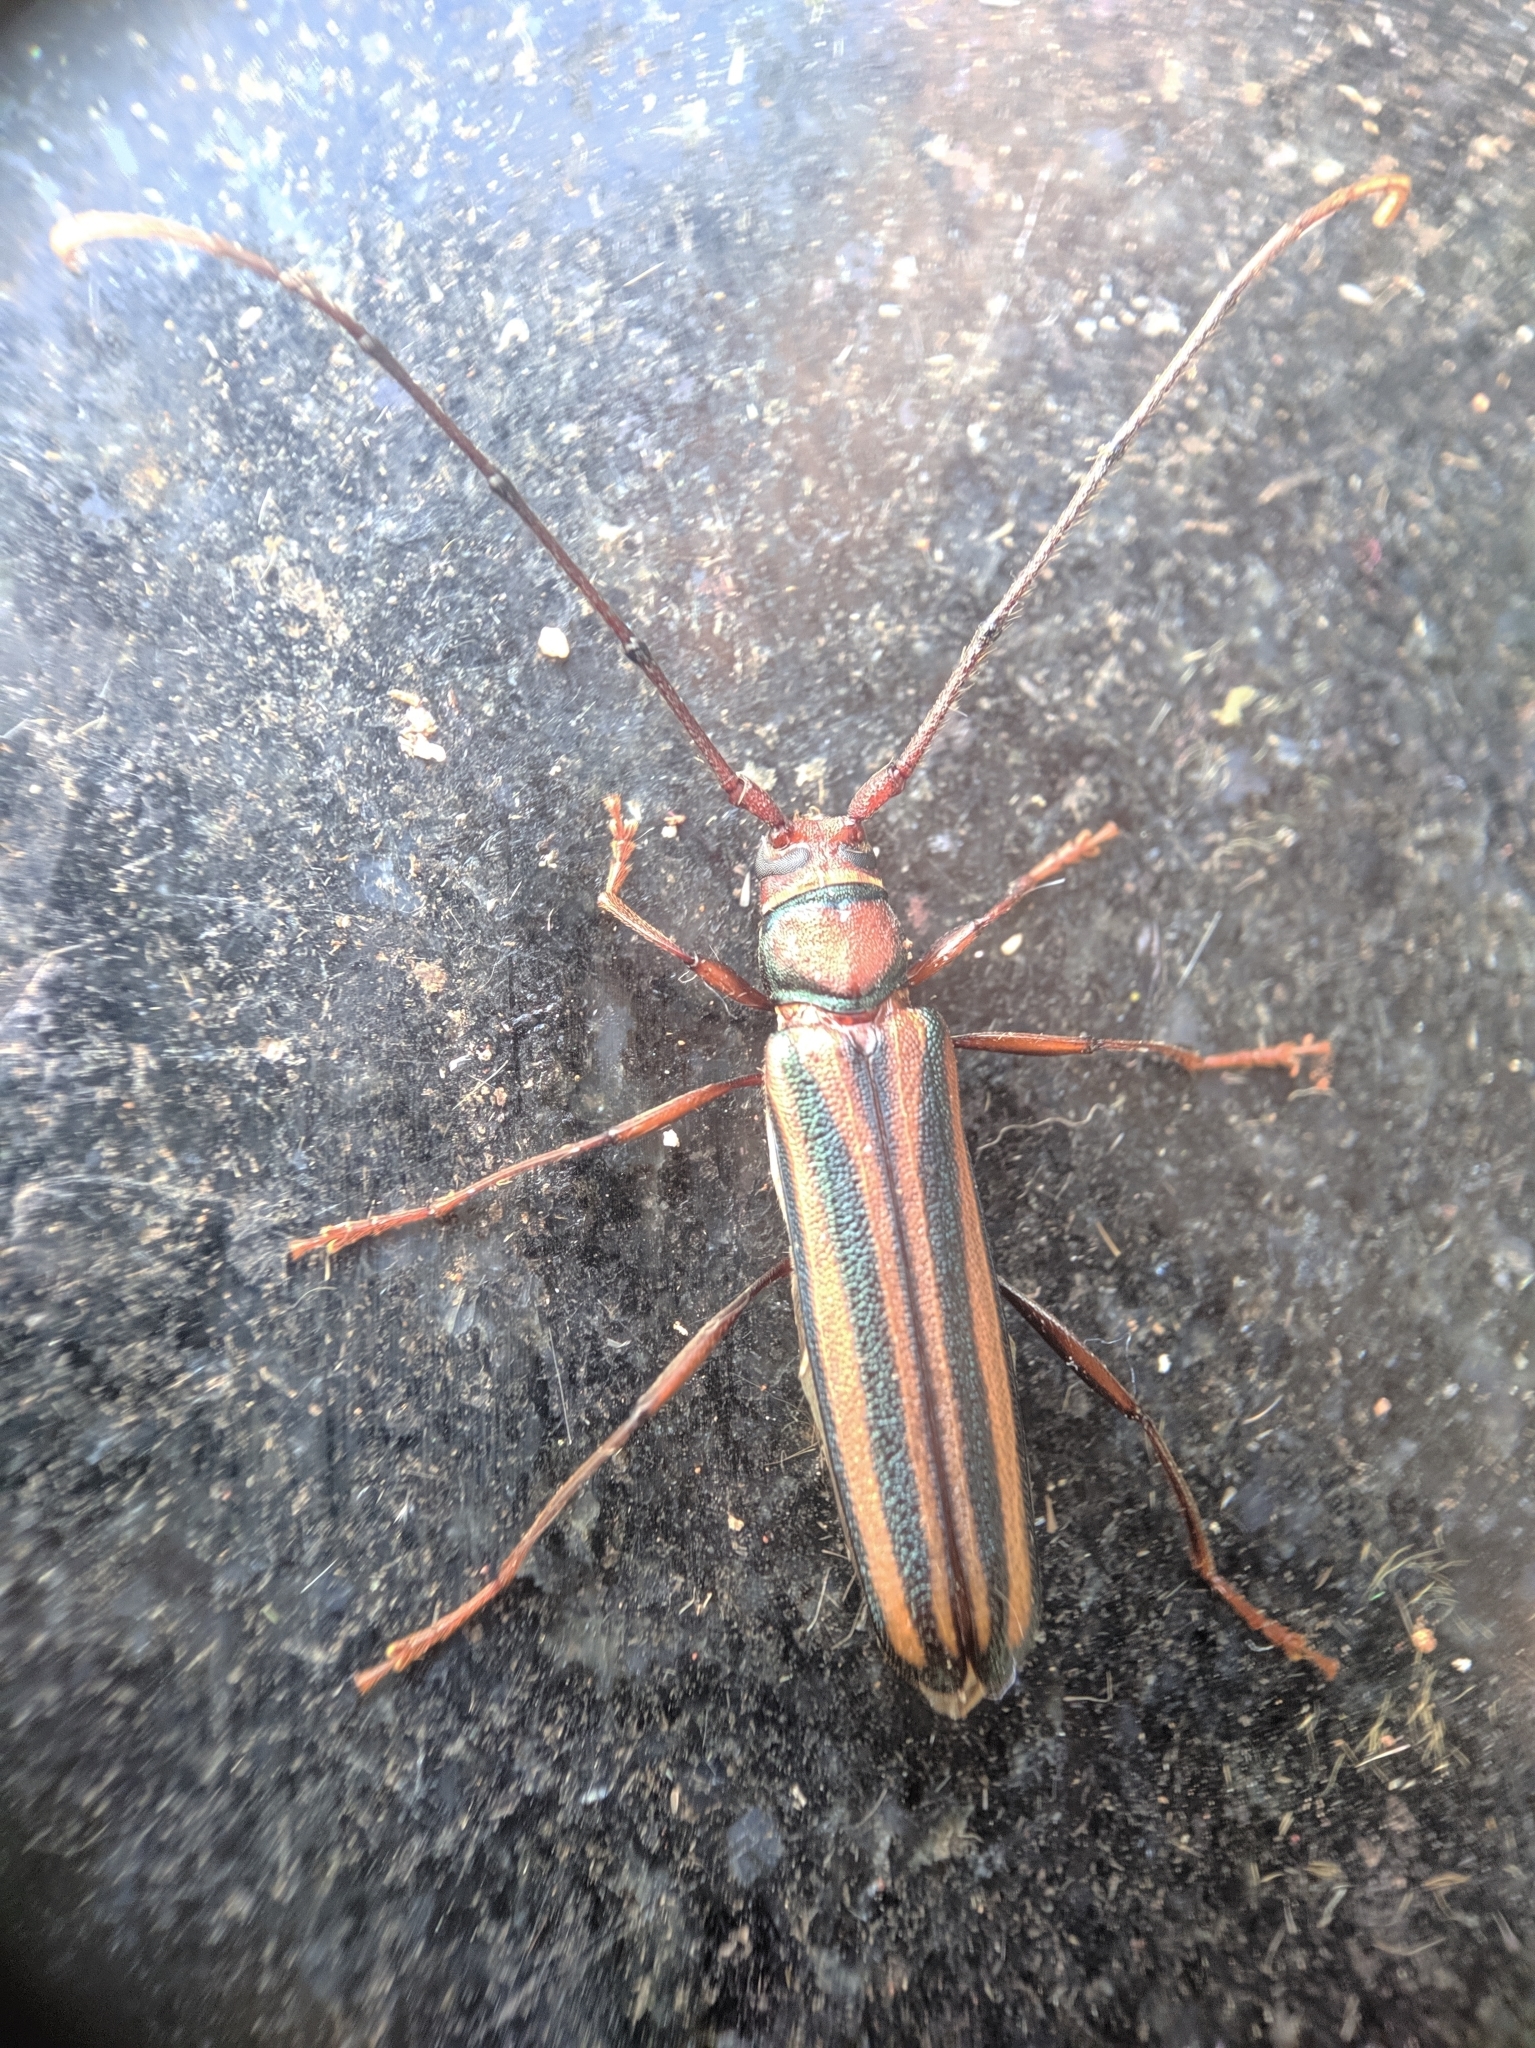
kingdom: Animalia
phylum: Arthropoda
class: Insecta
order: Coleoptera
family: Cerambycidae
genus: Xystrocera
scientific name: Xystrocera globosa
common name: Peach-tree longhorn
